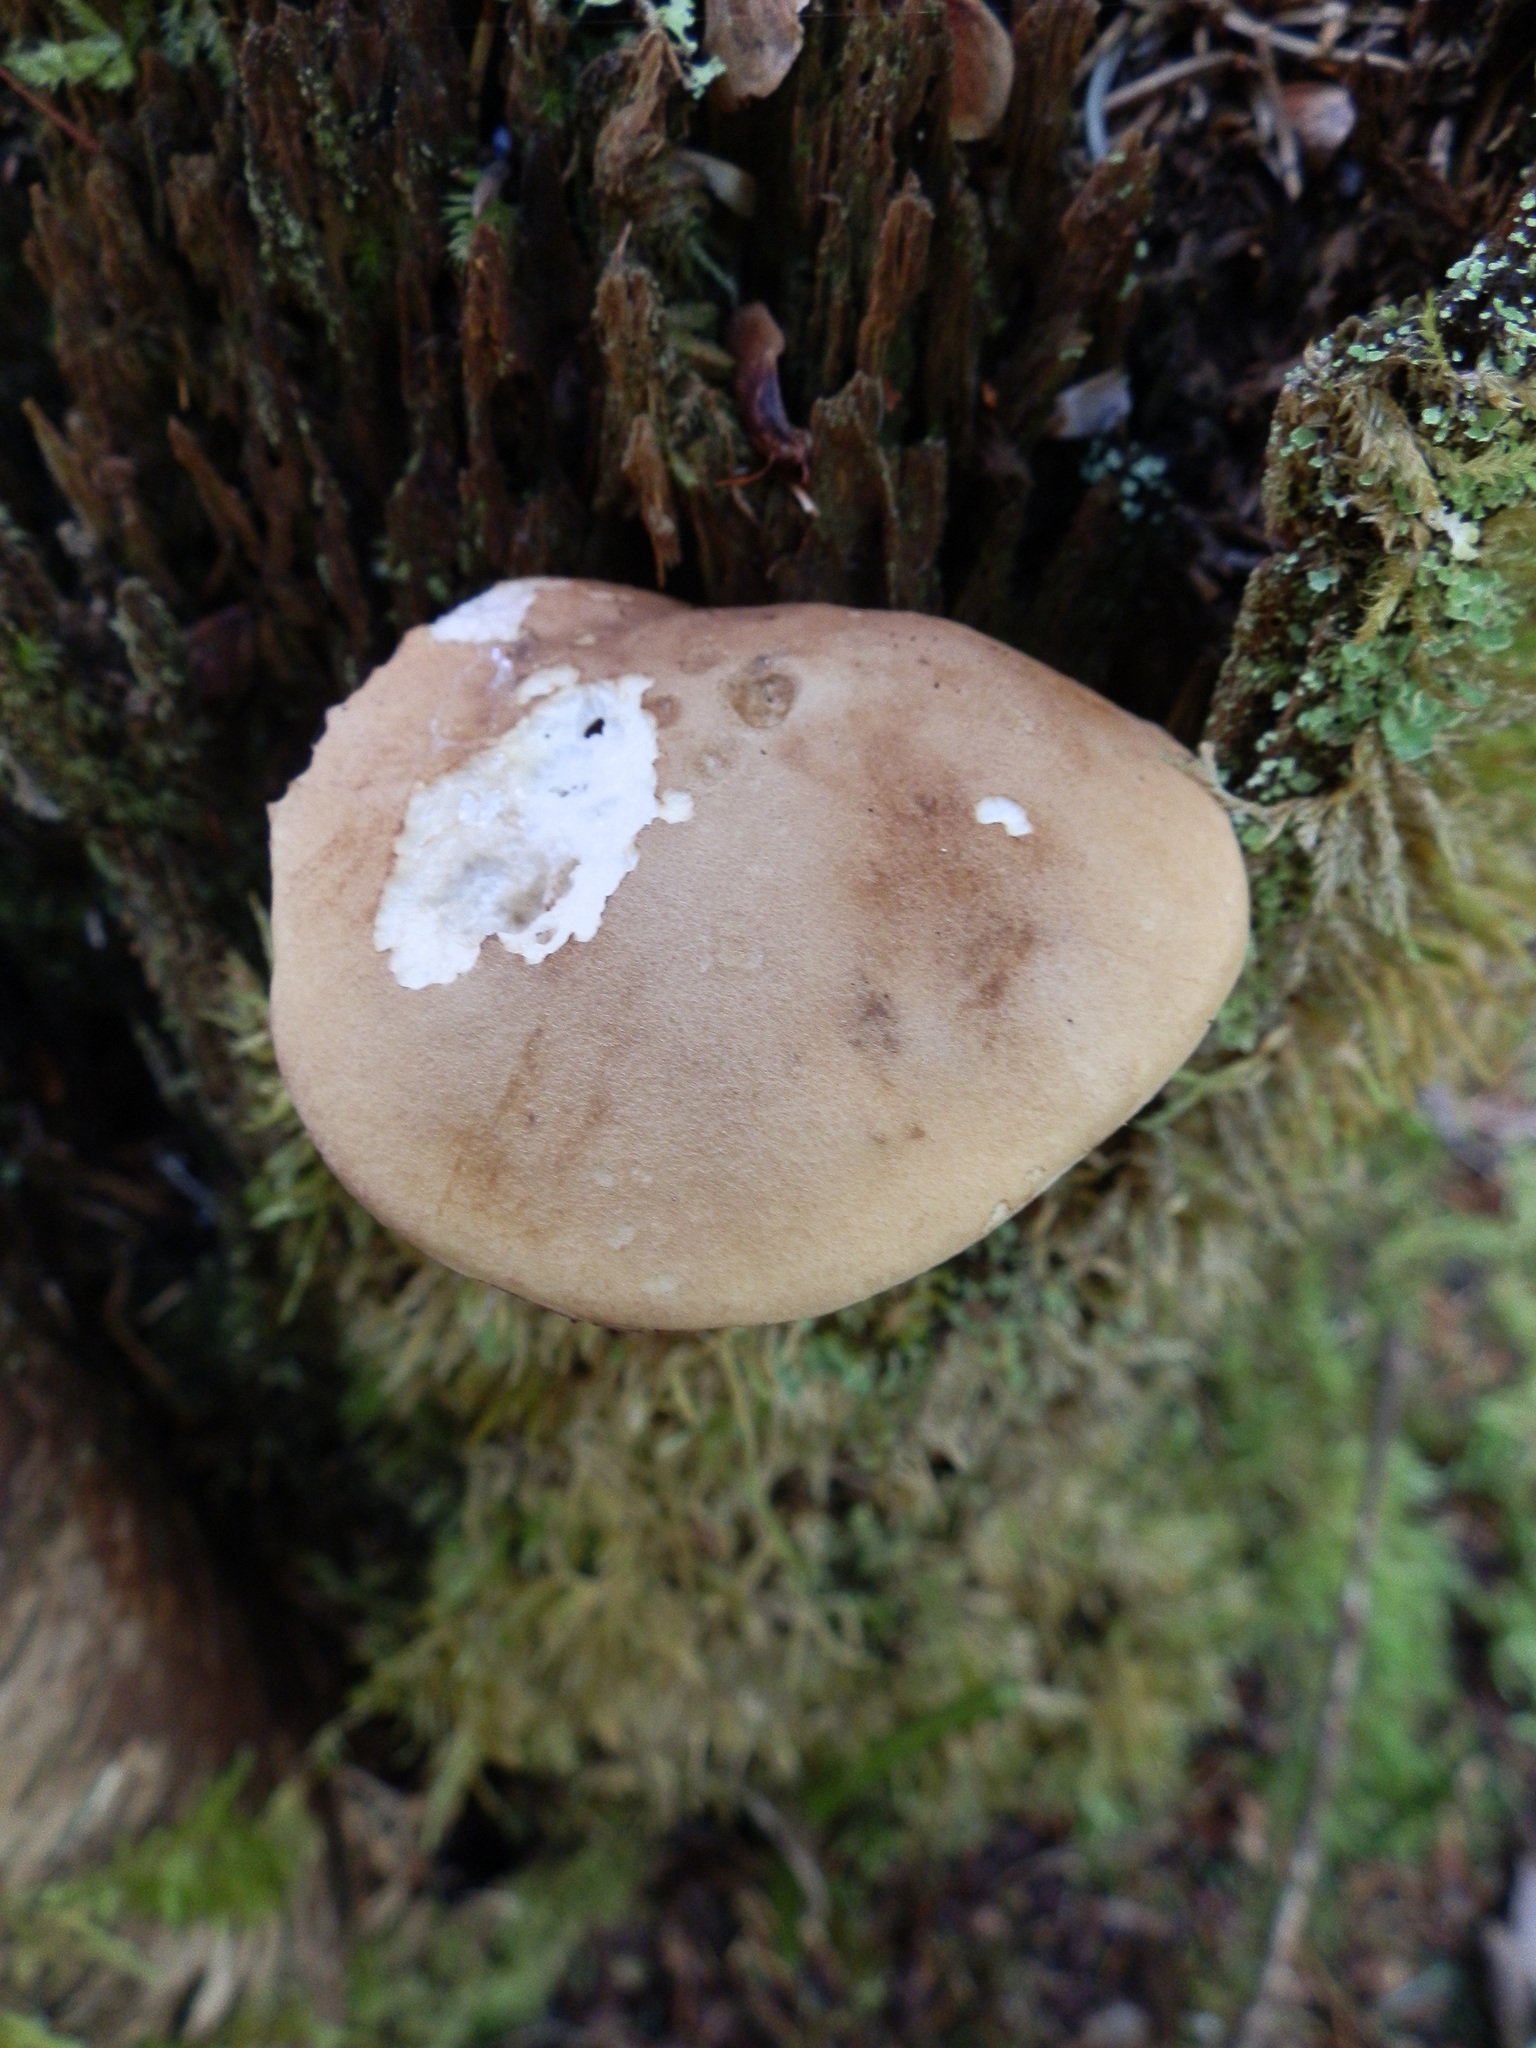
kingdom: Fungi
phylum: Basidiomycota
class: Agaricomycetes
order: Boletales
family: Boletaceae
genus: Tylopilus
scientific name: Tylopilus felleus
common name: Bitter bolete
